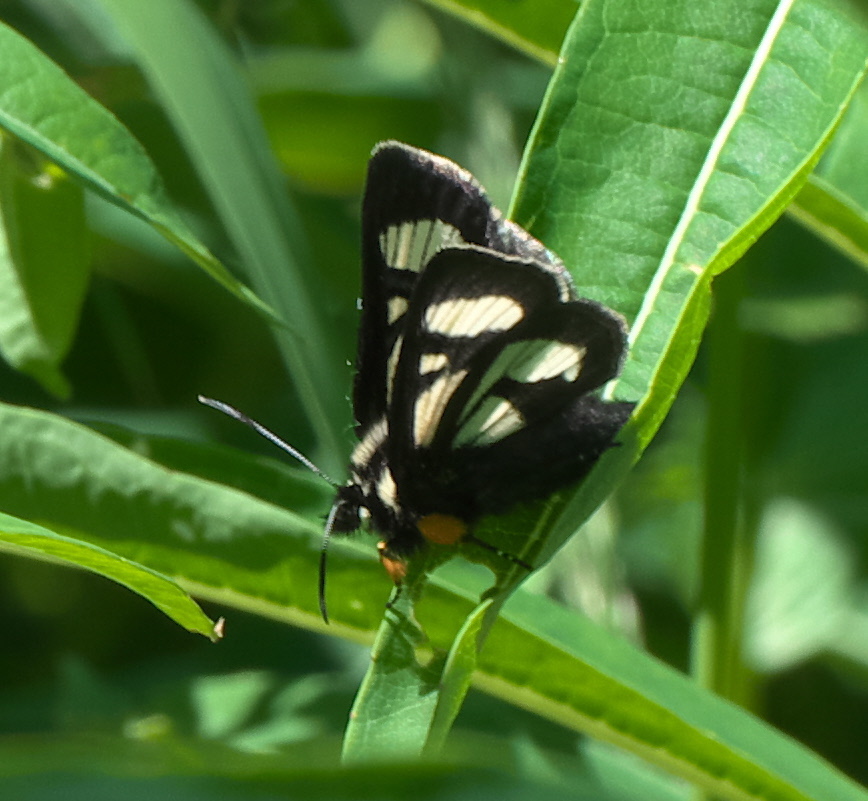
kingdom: Animalia
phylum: Arthropoda
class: Insecta
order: Lepidoptera
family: Noctuidae
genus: Alypia
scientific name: Alypia maccullochii
